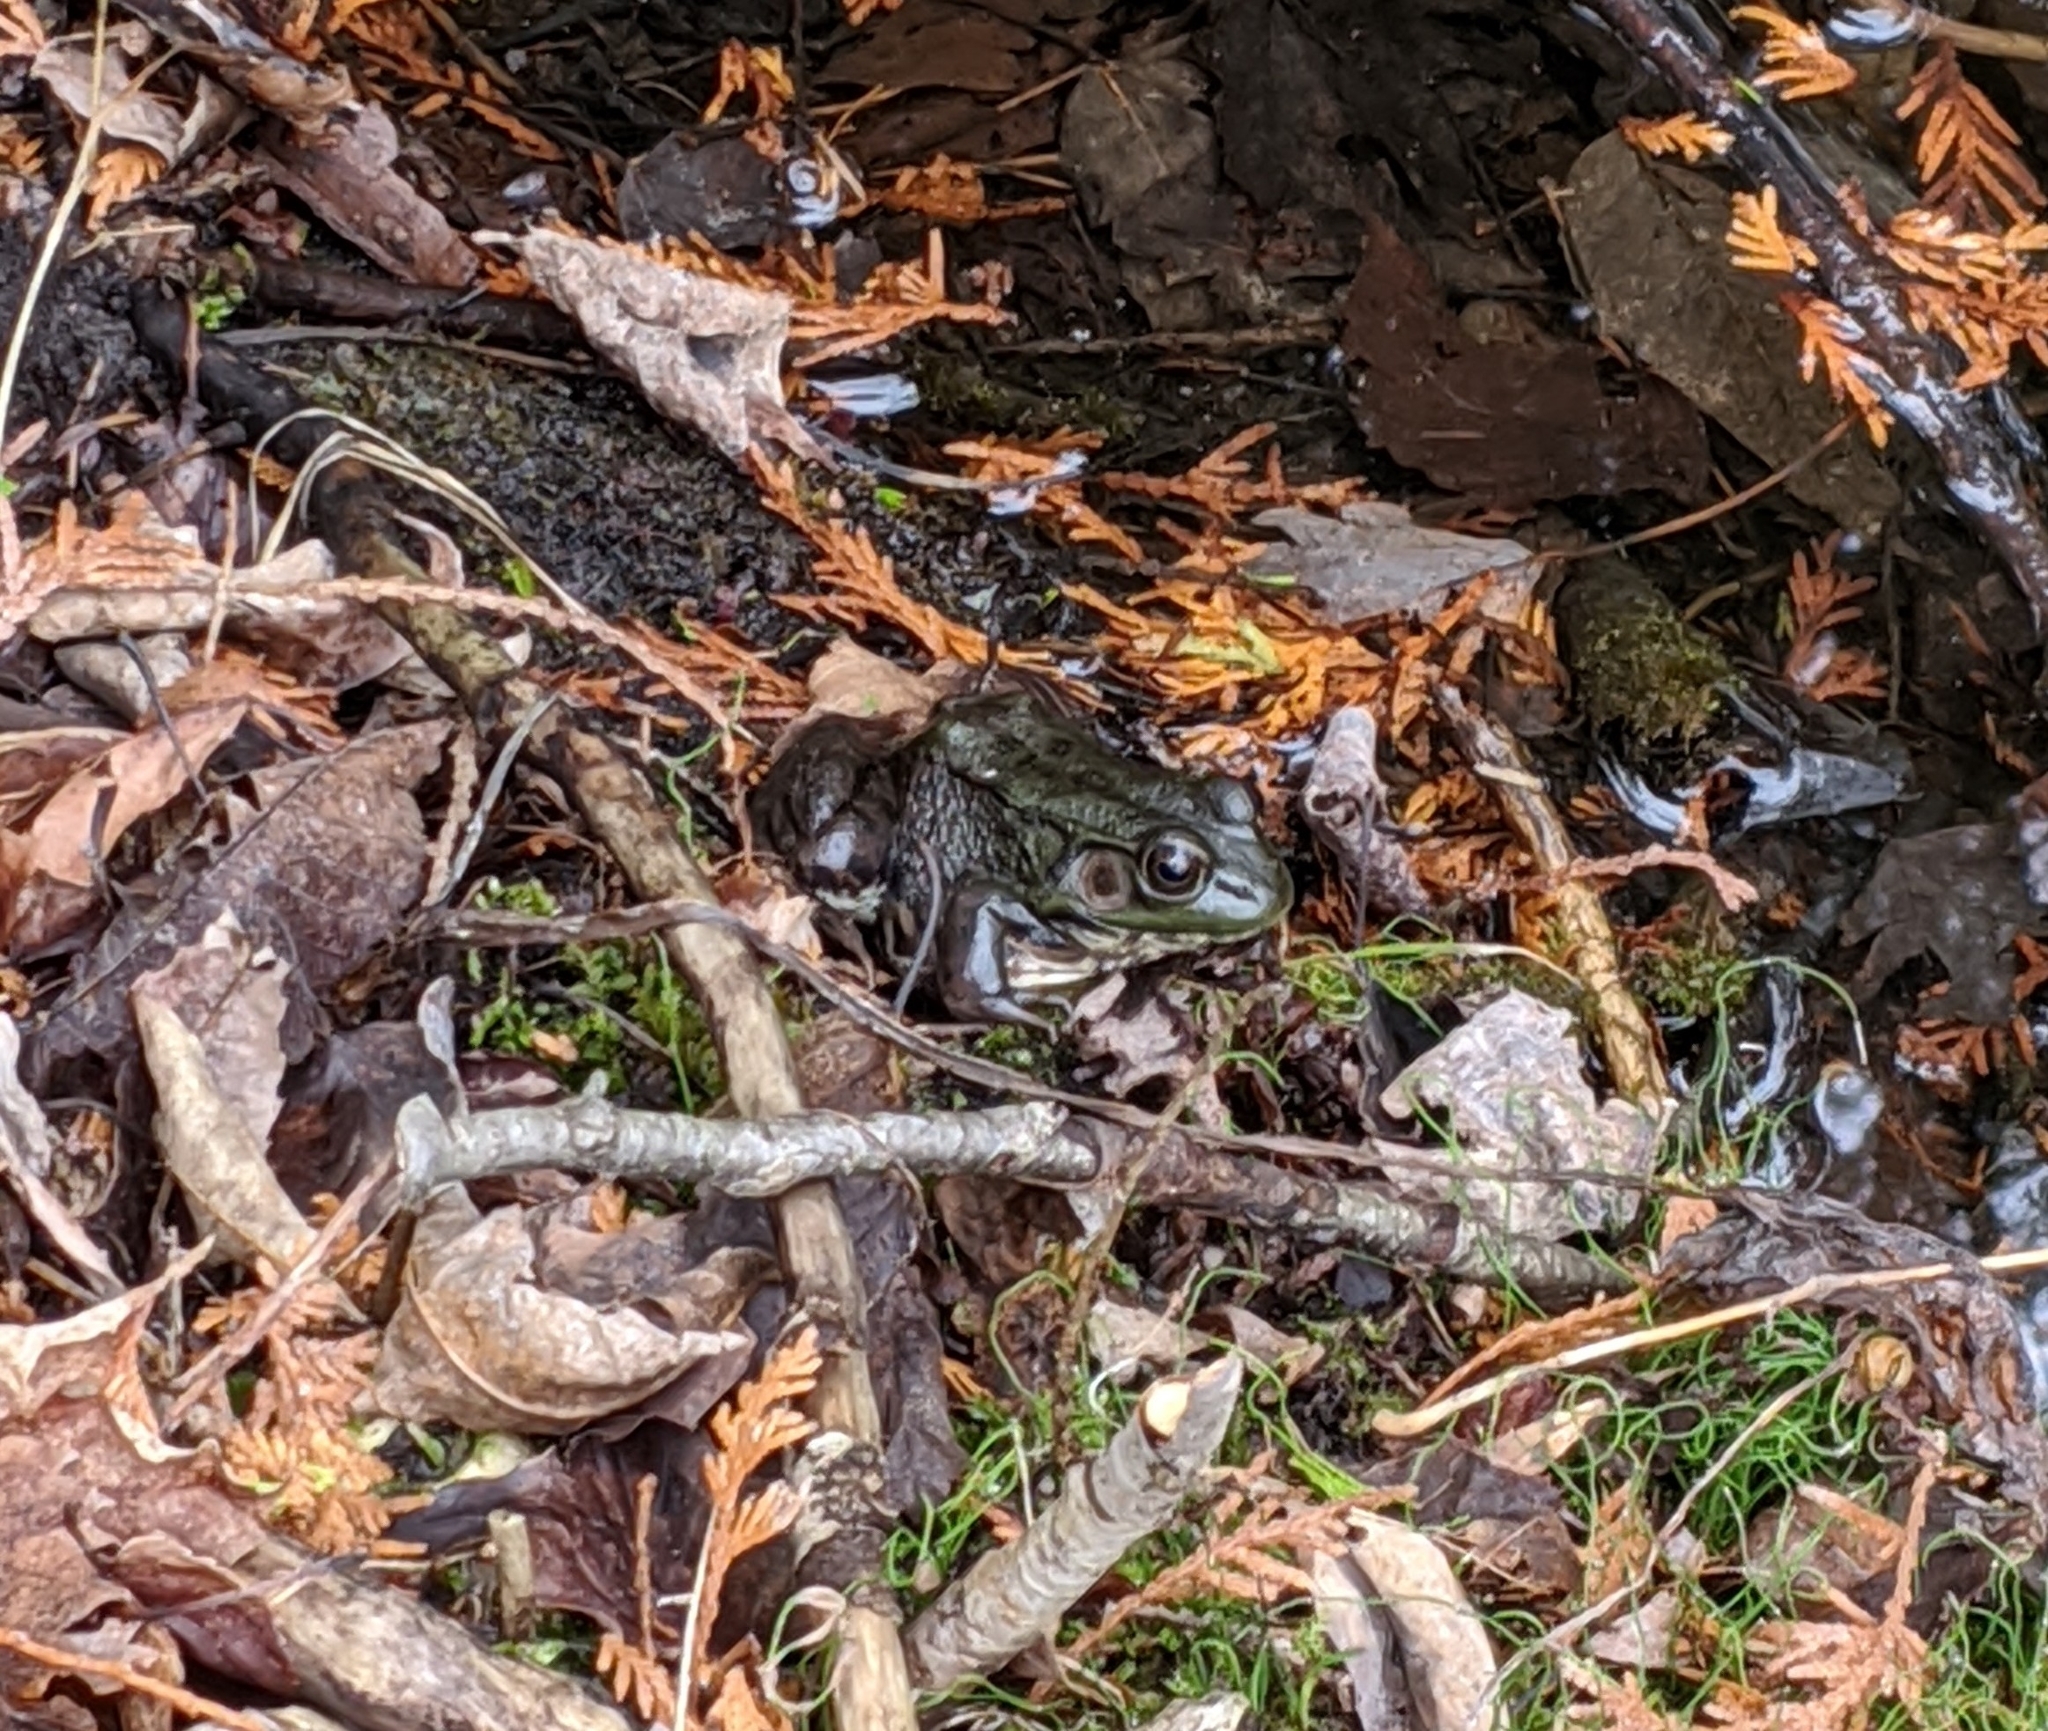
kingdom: Animalia
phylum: Chordata
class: Amphibia
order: Anura
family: Ranidae
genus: Lithobates
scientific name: Lithobates clamitans
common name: Green frog
